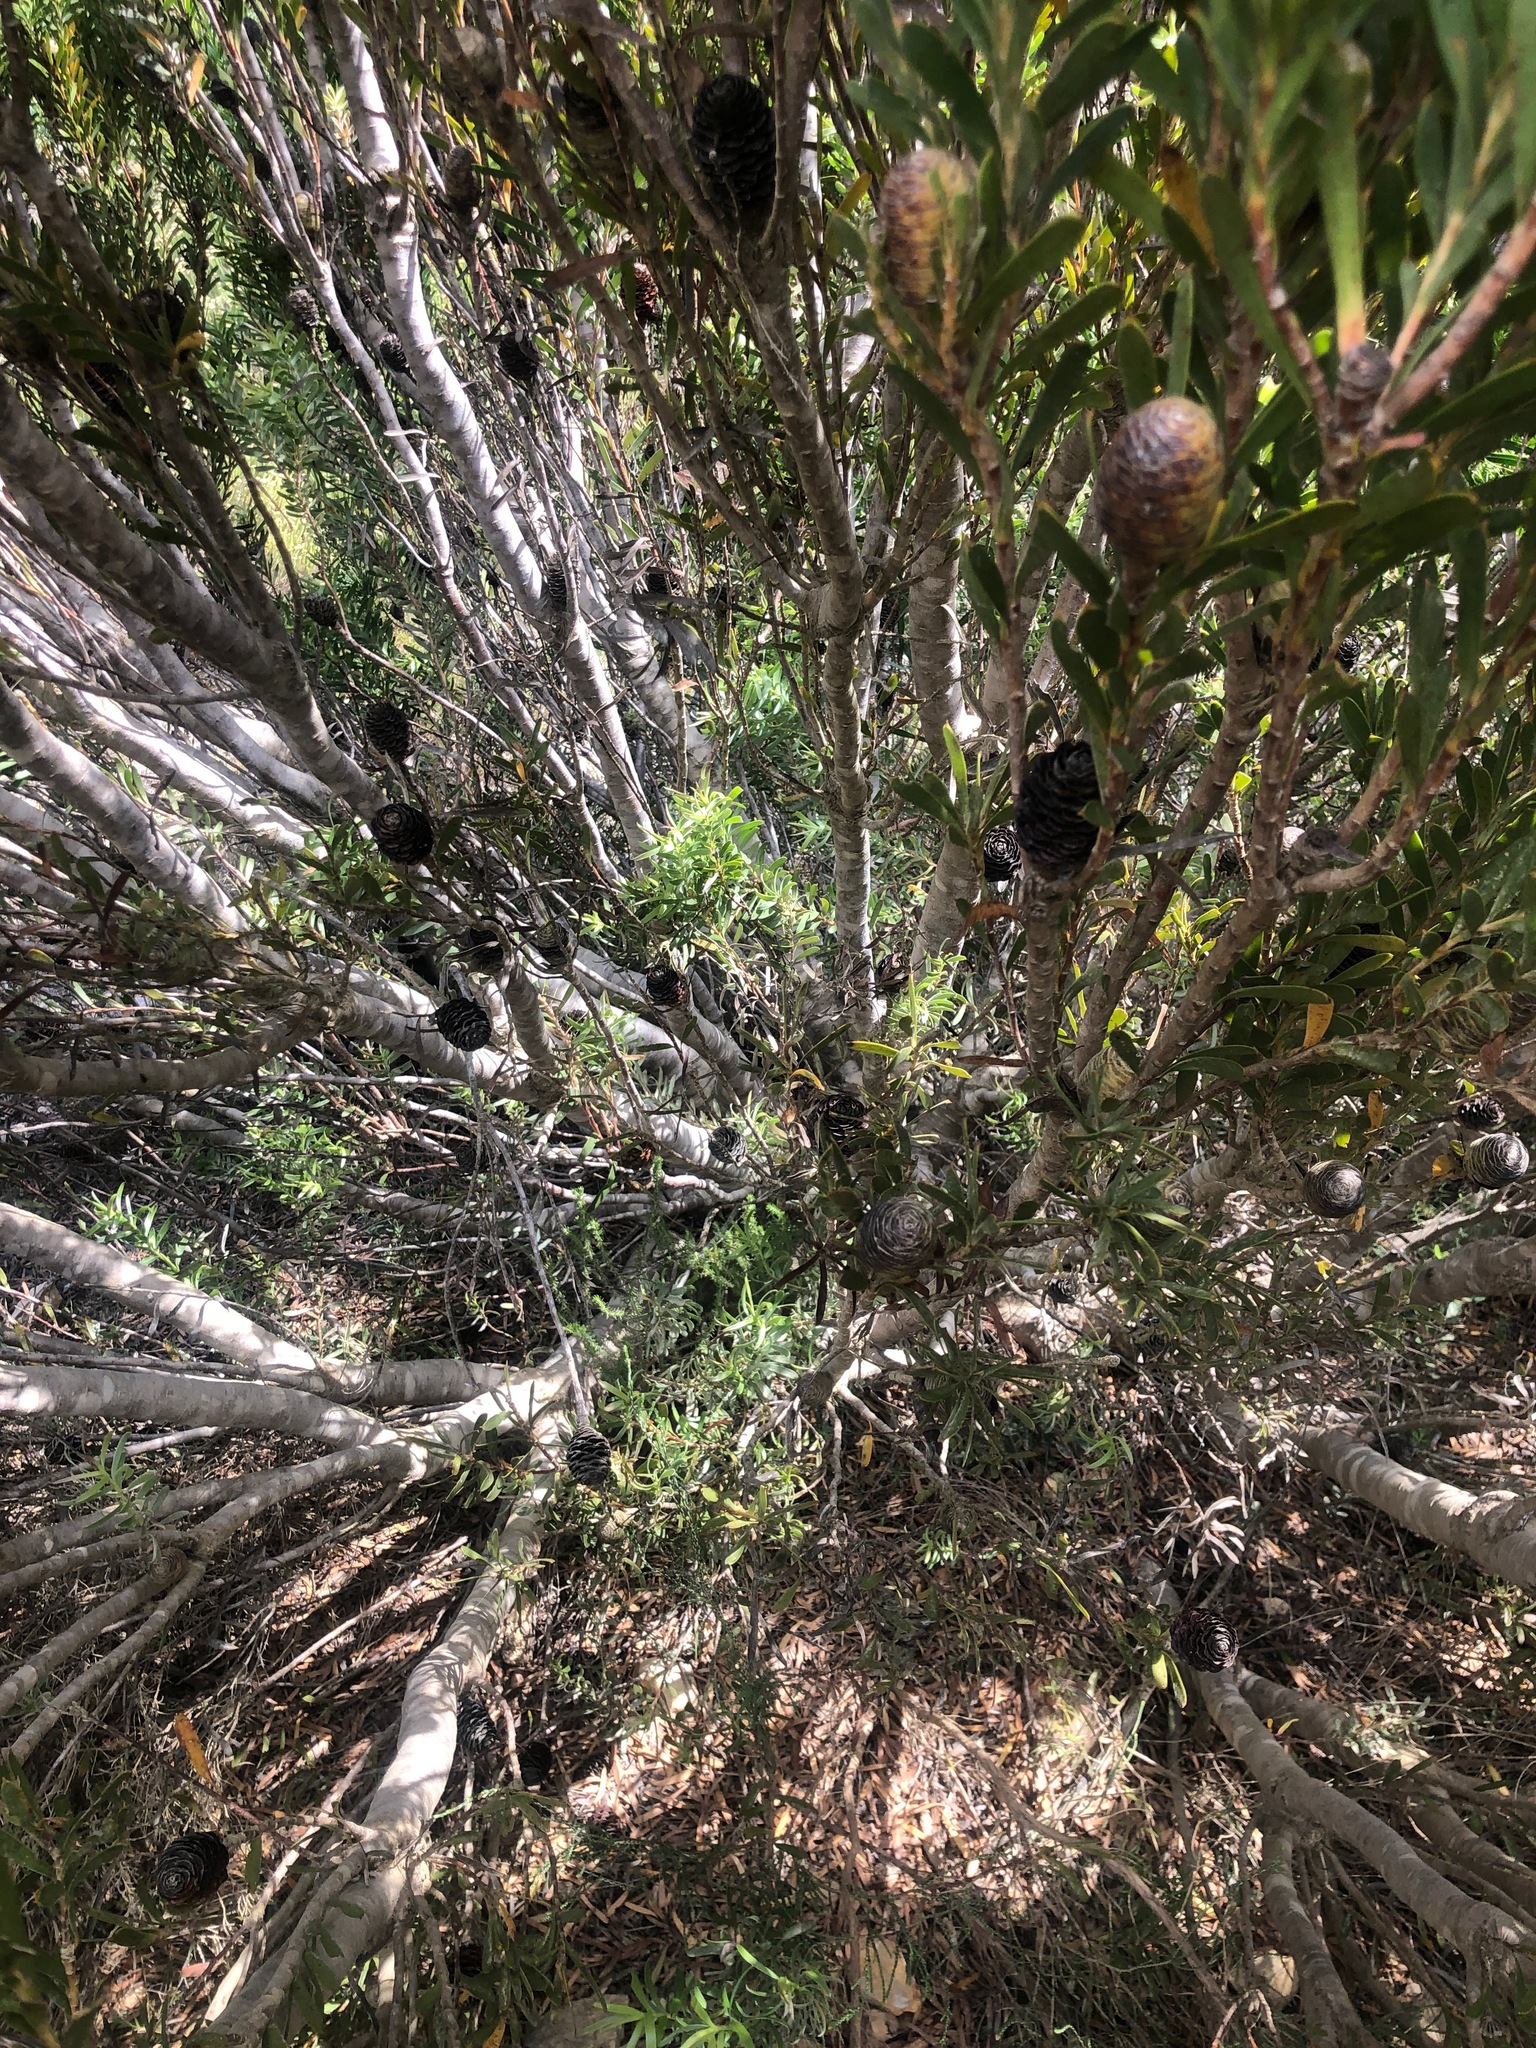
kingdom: Plantae
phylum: Tracheophyta
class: Magnoliopsida
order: Proteales
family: Proteaceae
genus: Leucadendron
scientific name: Leucadendron meridianum
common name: Limestone conebush
